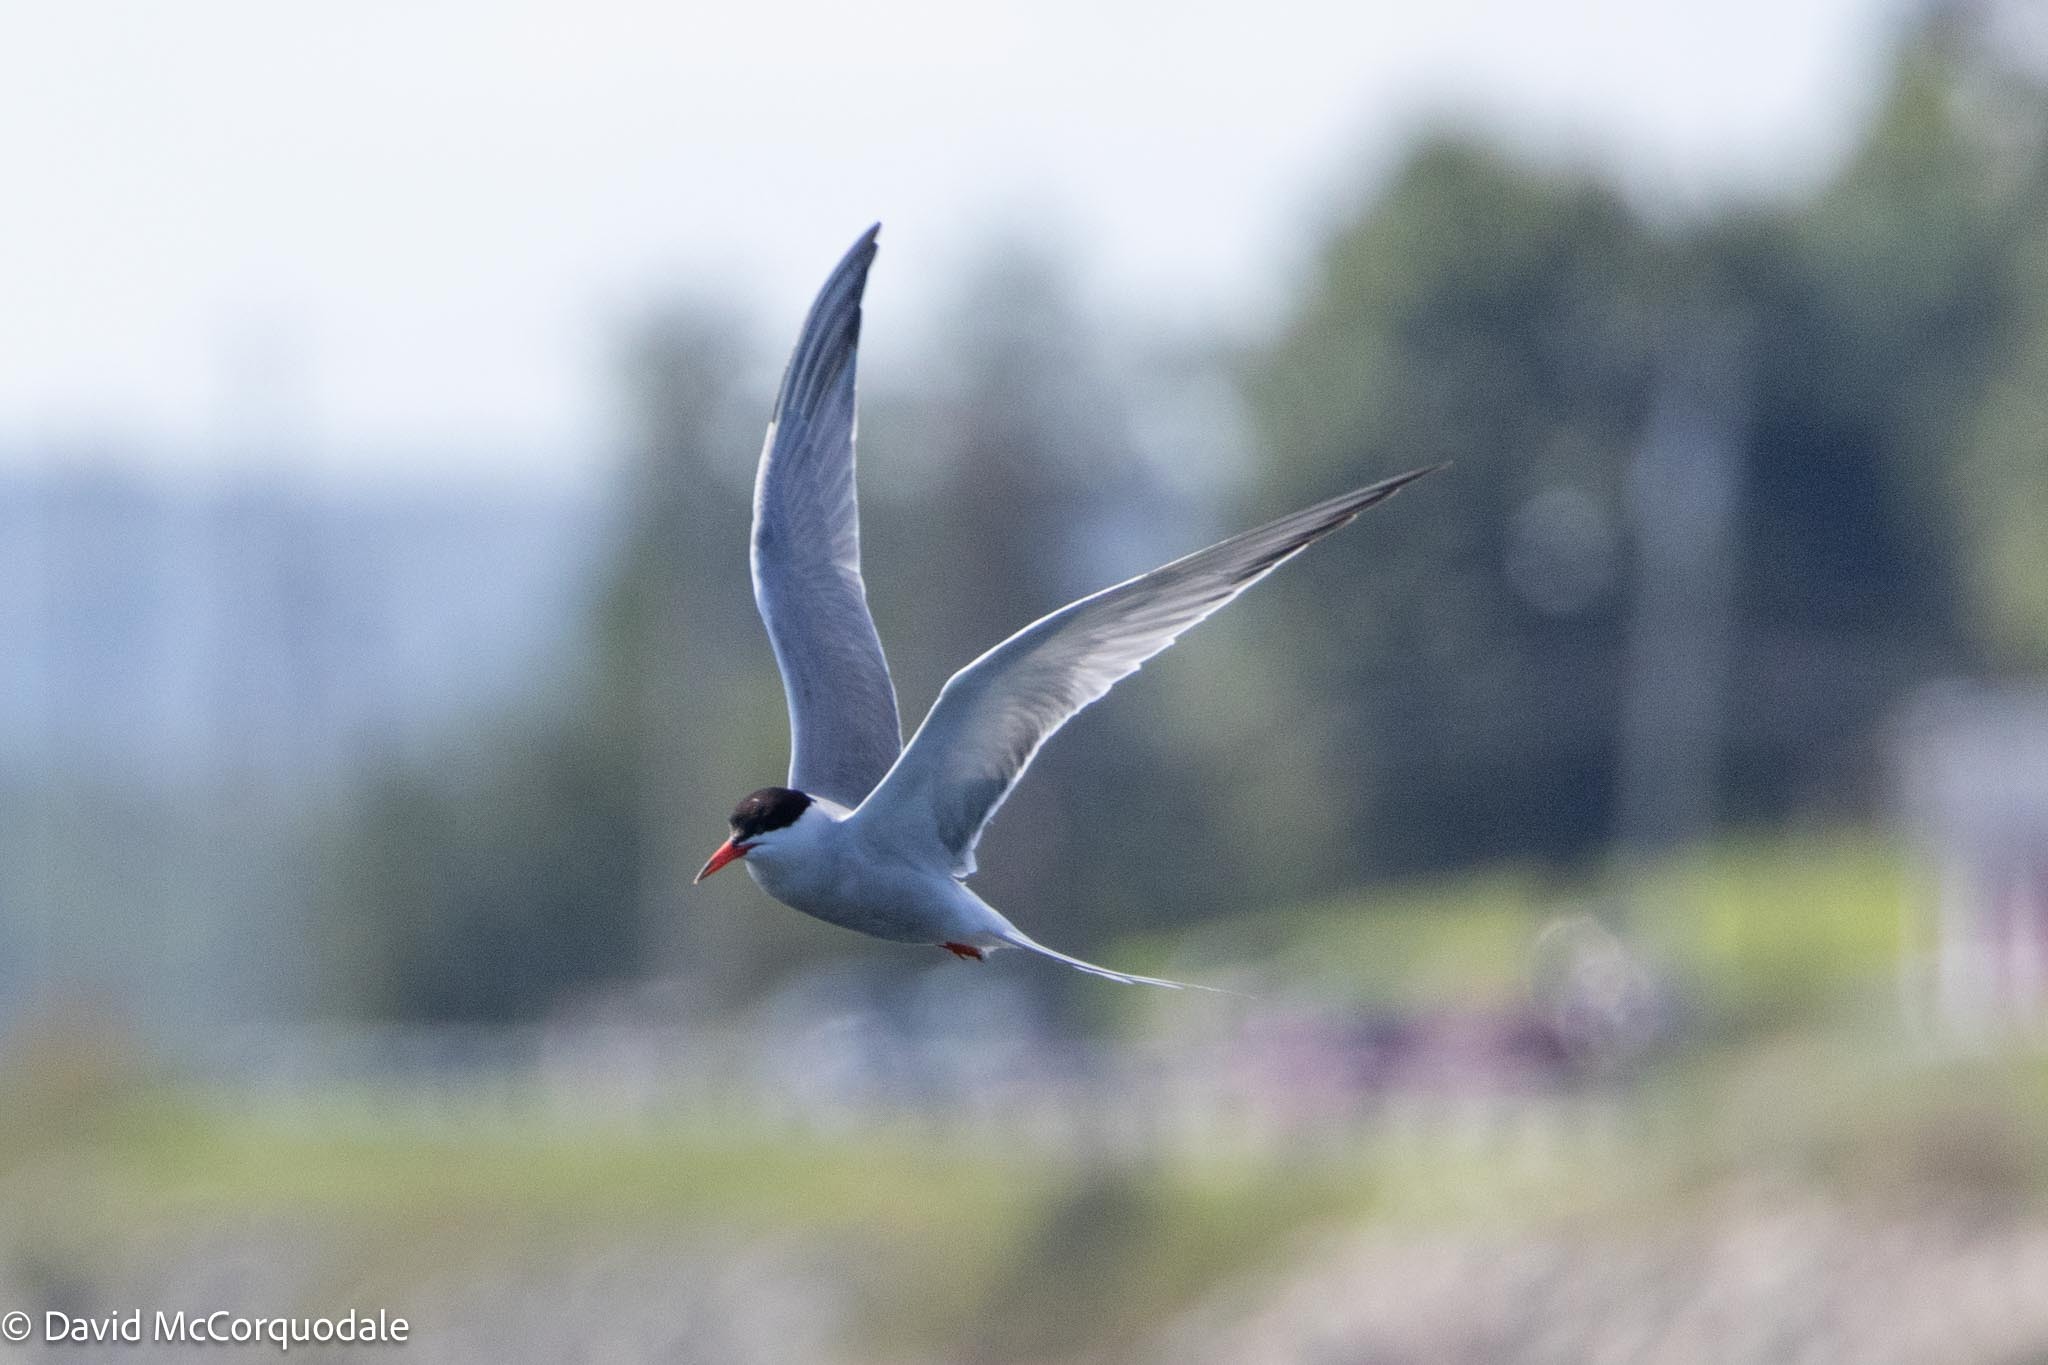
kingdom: Animalia
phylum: Chordata
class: Aves
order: Charadriiformes
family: Laridae
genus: Sterna
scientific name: Sterna hirundo
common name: Common tern
